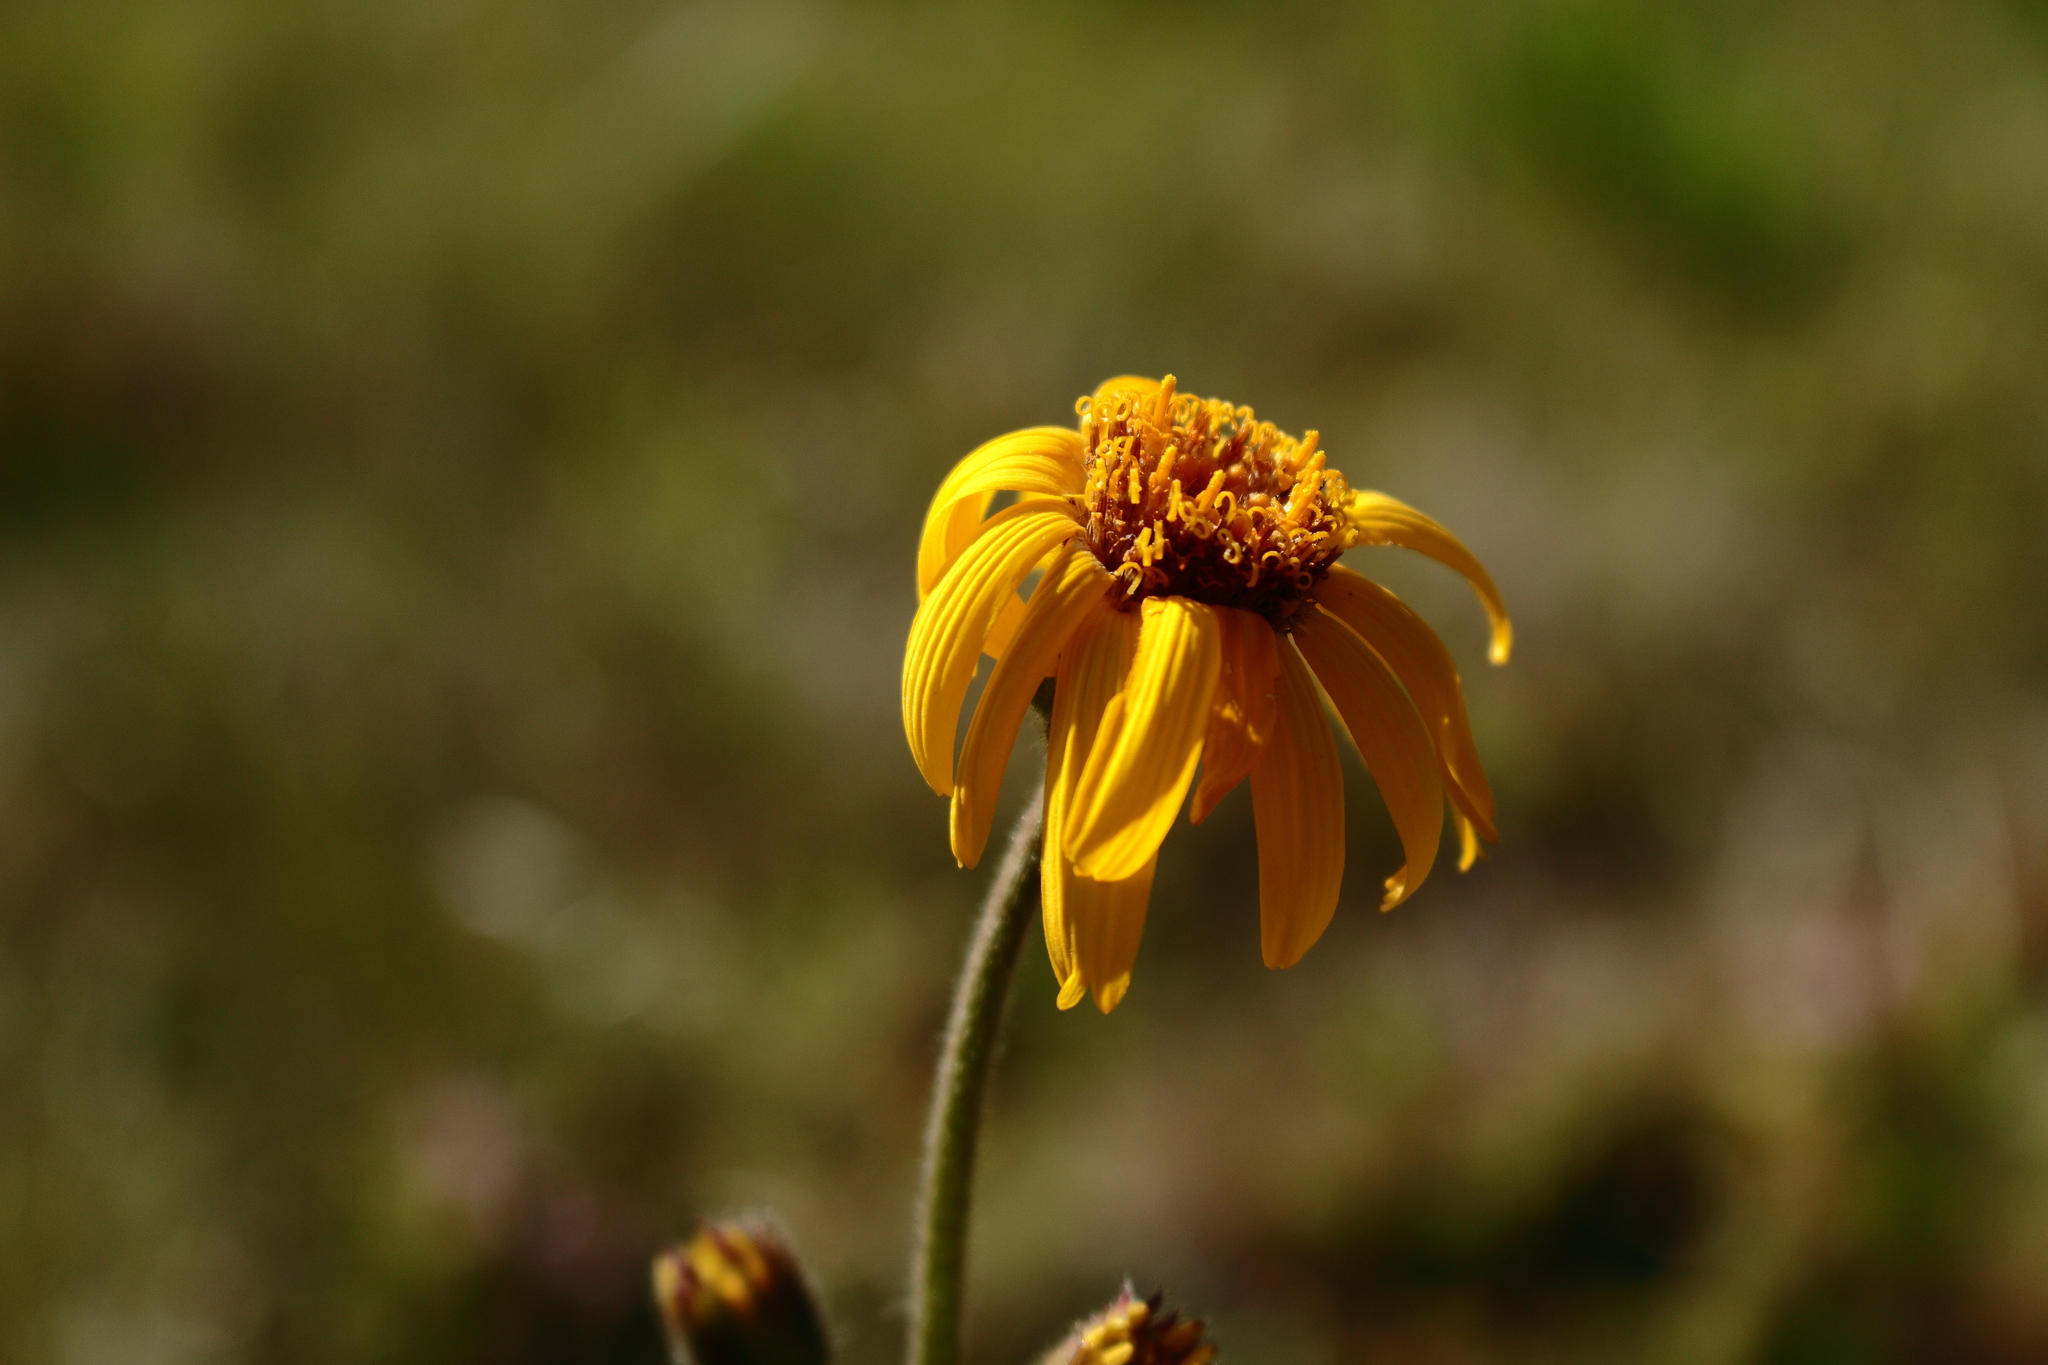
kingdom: Plantae
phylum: Tracheophyta
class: Magnoliopsida
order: Asterales
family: Asteraceae
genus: Arnica
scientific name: Arnica montana
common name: Leopard's bane
